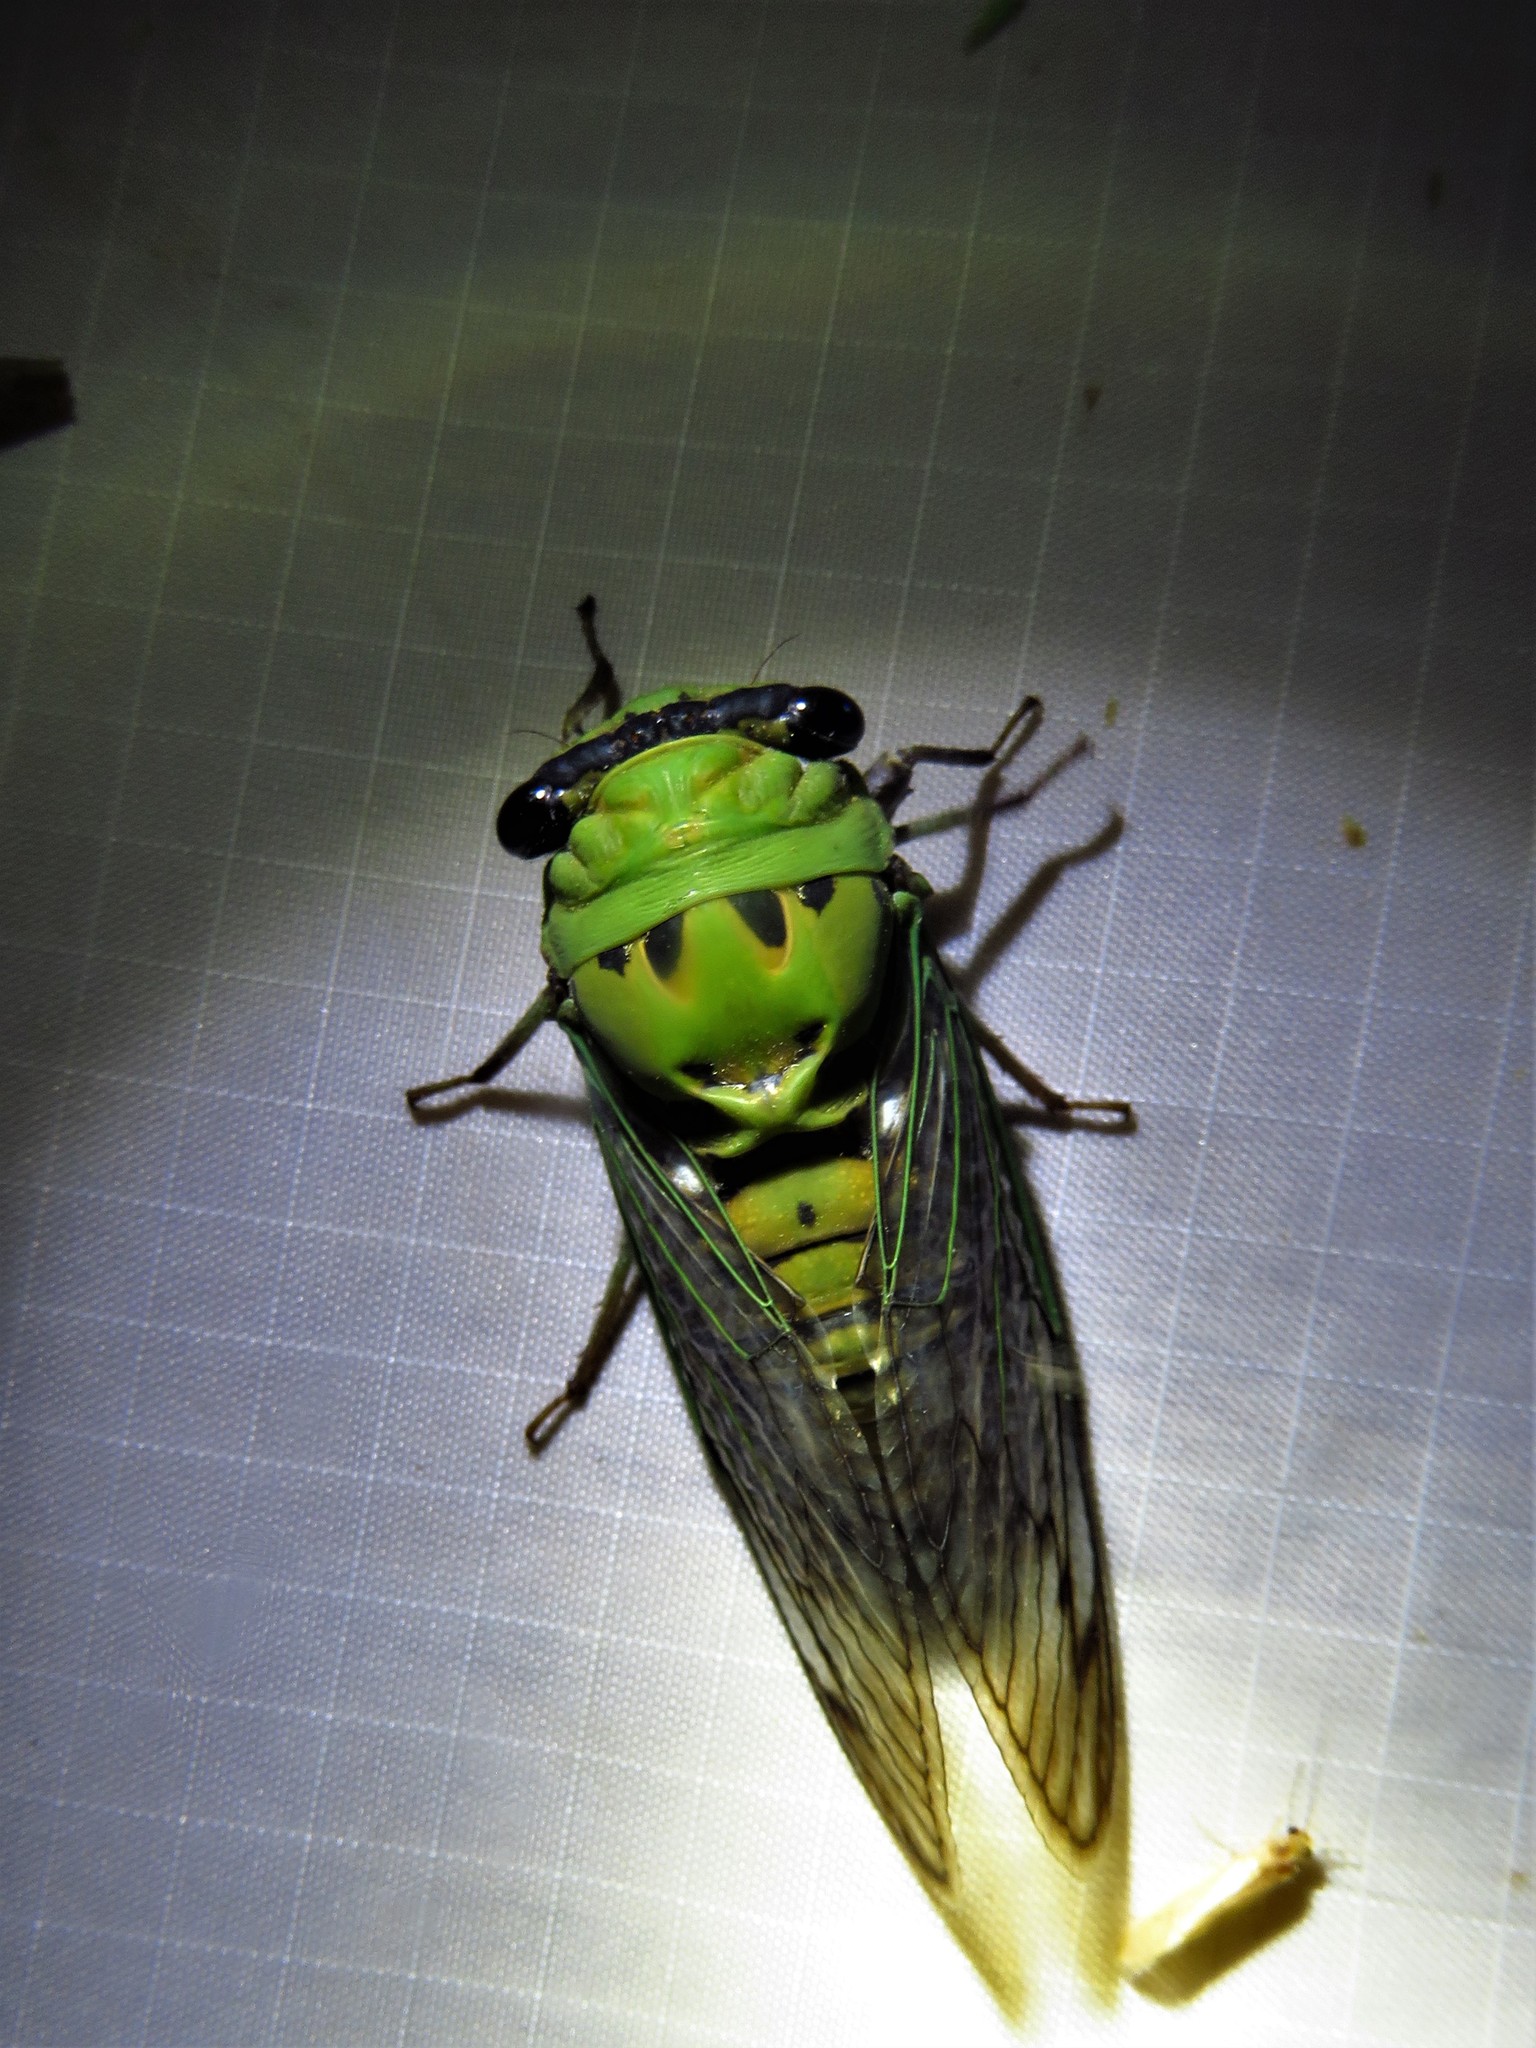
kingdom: Animalia
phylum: Arthropoda
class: Insecta
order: Hemiptera
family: Cicadidae
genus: Neotibicen
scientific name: Neotibicen superbus
